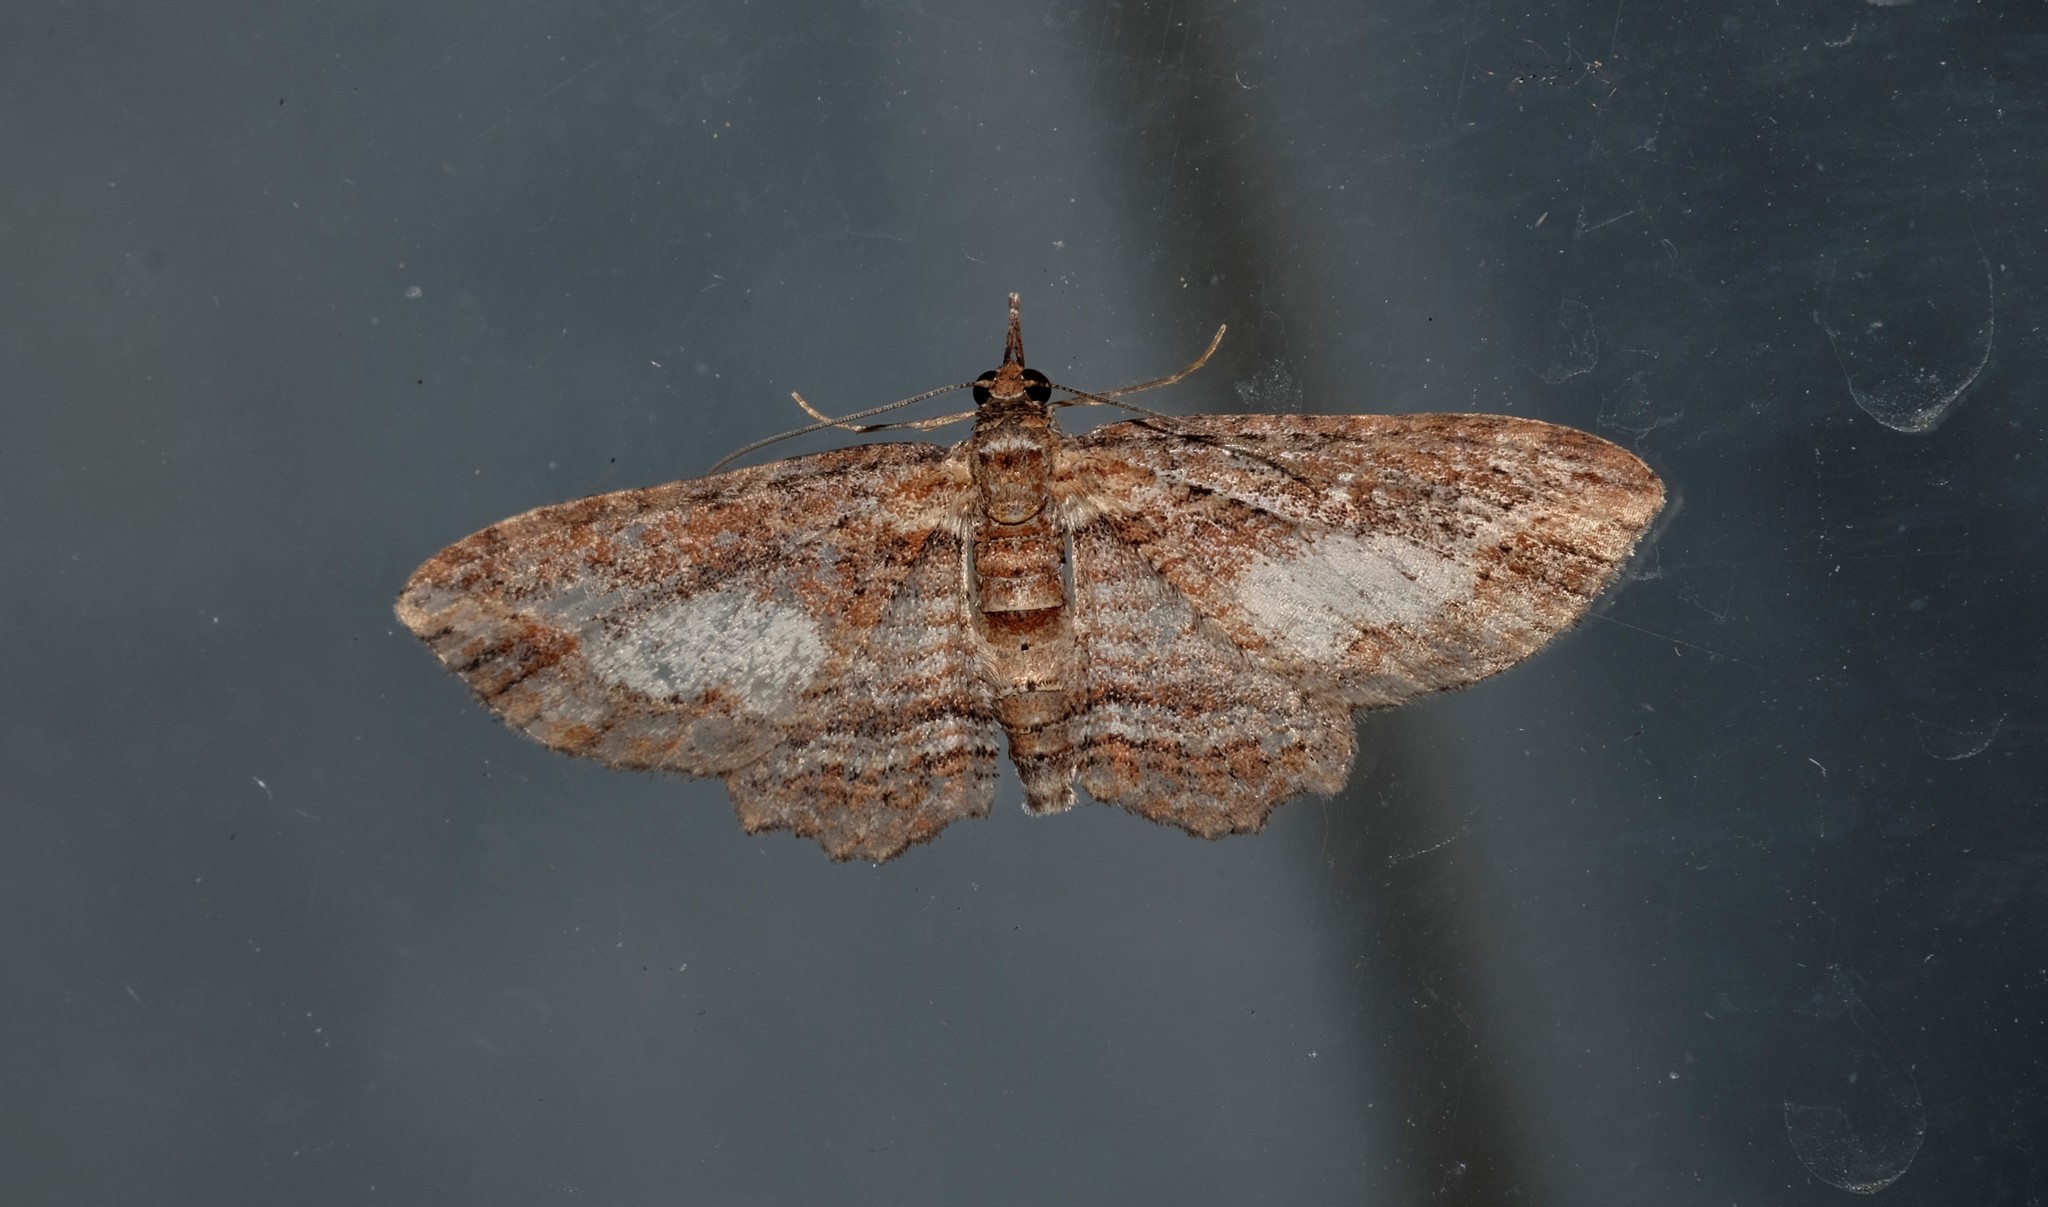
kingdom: Animalia
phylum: Arthropoda
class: Insecta
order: Lepidoptera
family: Geometridae
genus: Chloroclystis
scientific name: Chloroclystis filata
